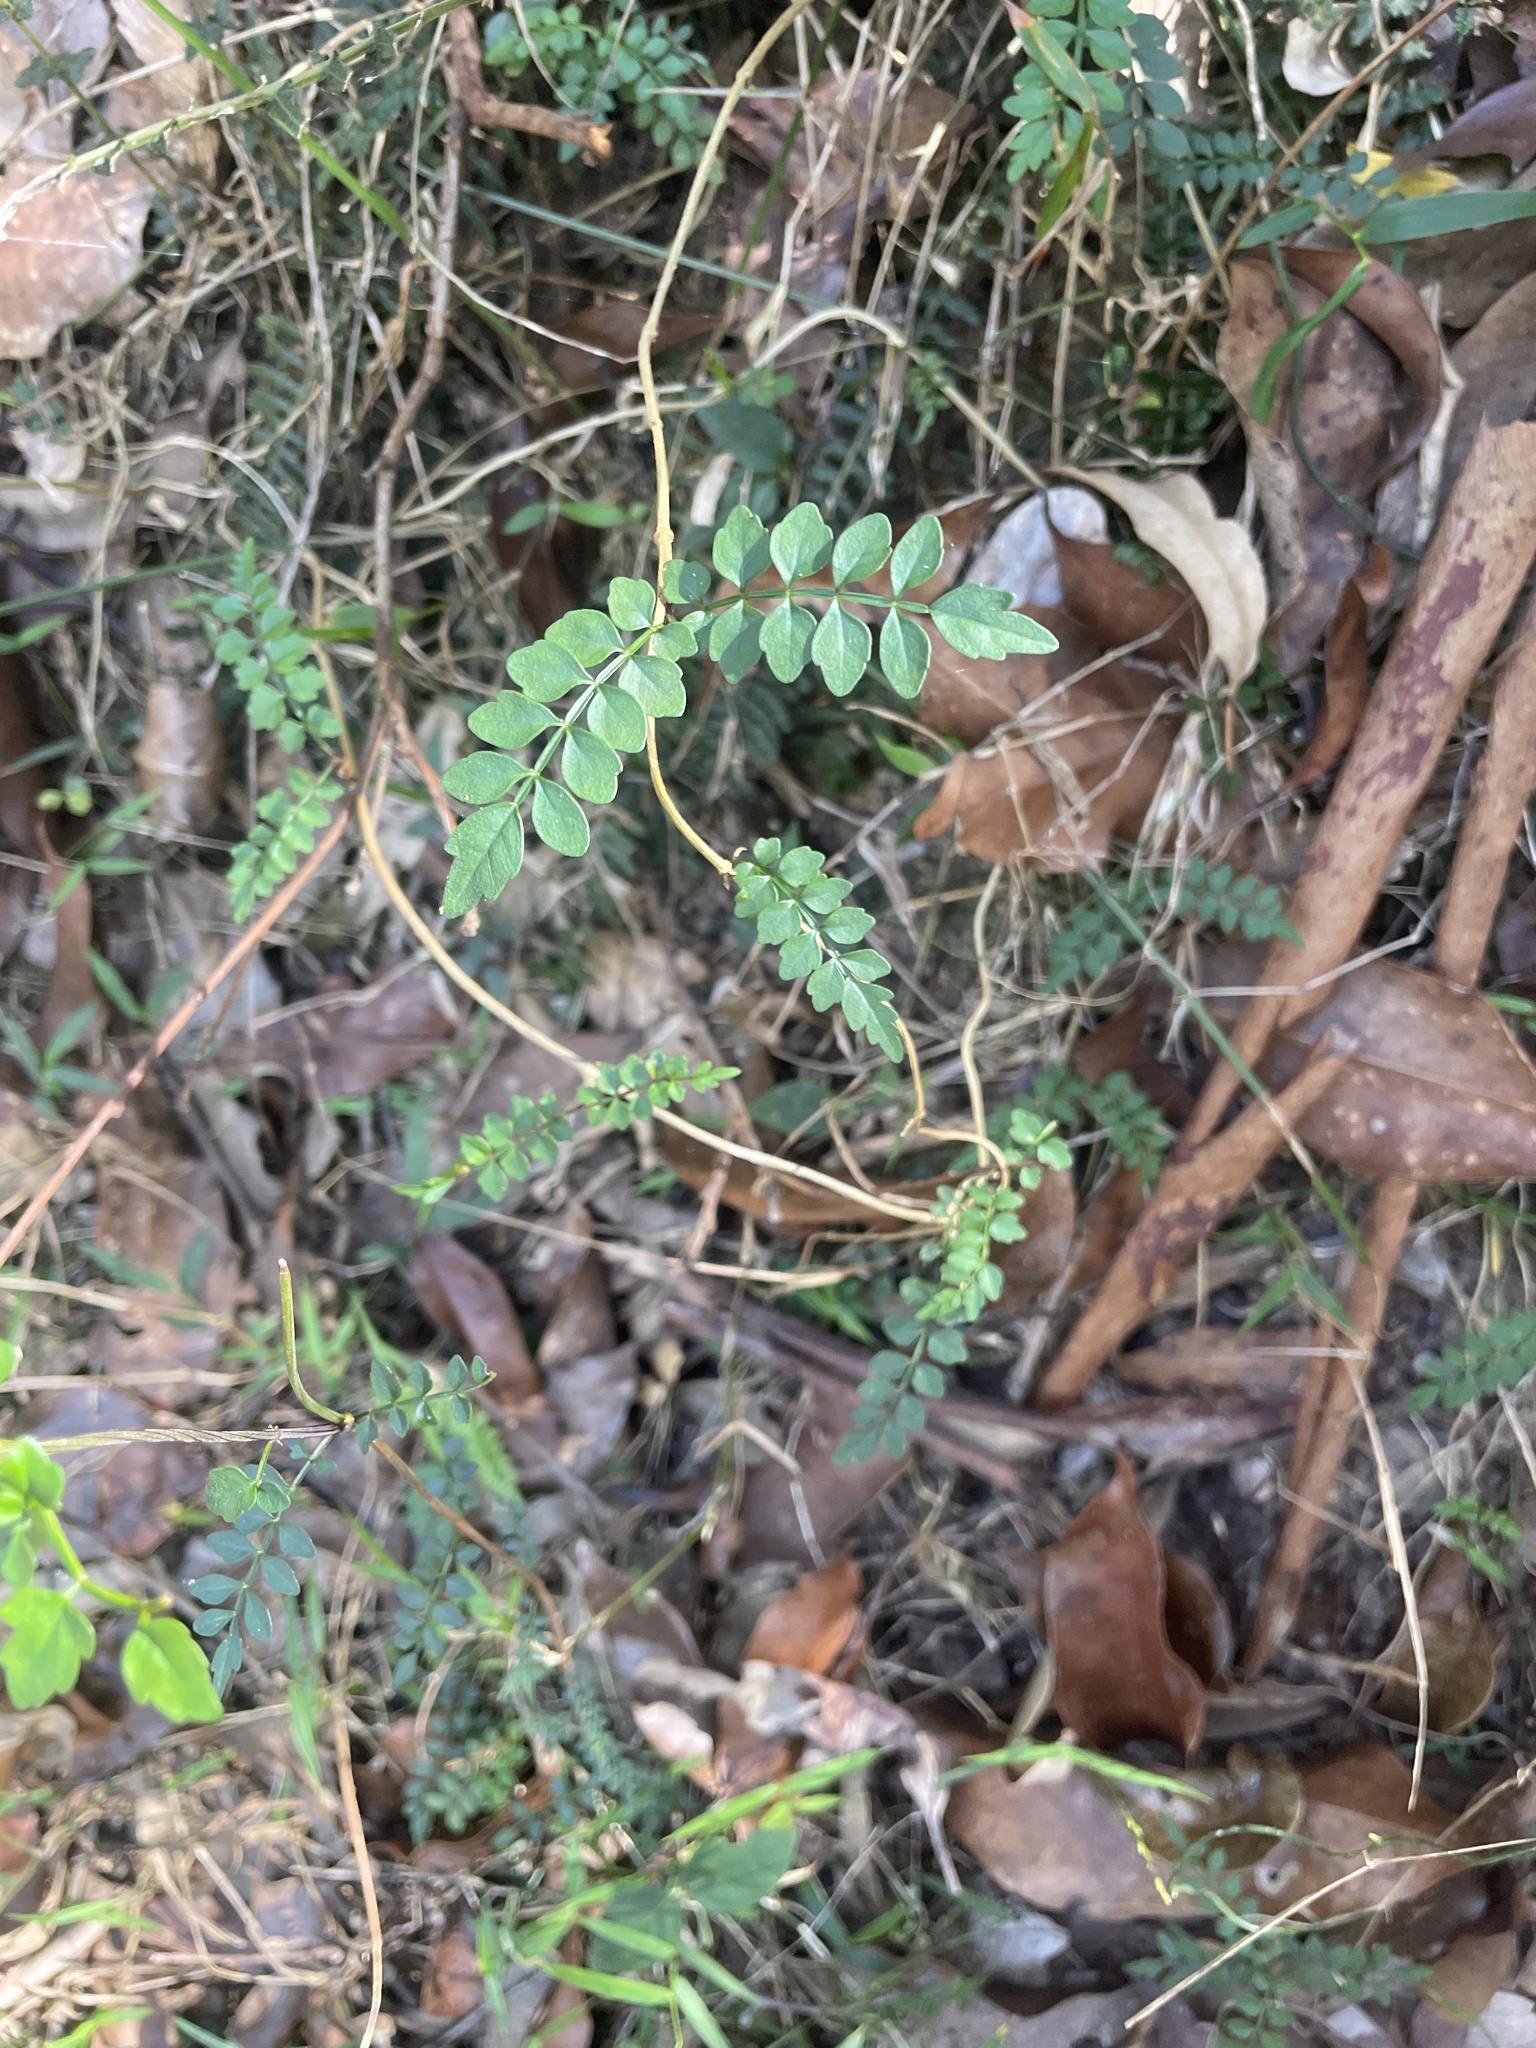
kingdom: Plantae
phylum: Tracheophyta
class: Magnoliopsida
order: Lamiales
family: Bignoniaceae
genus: Pandorea
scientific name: Pandorea pandorana
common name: Wonga-wonga-vine
